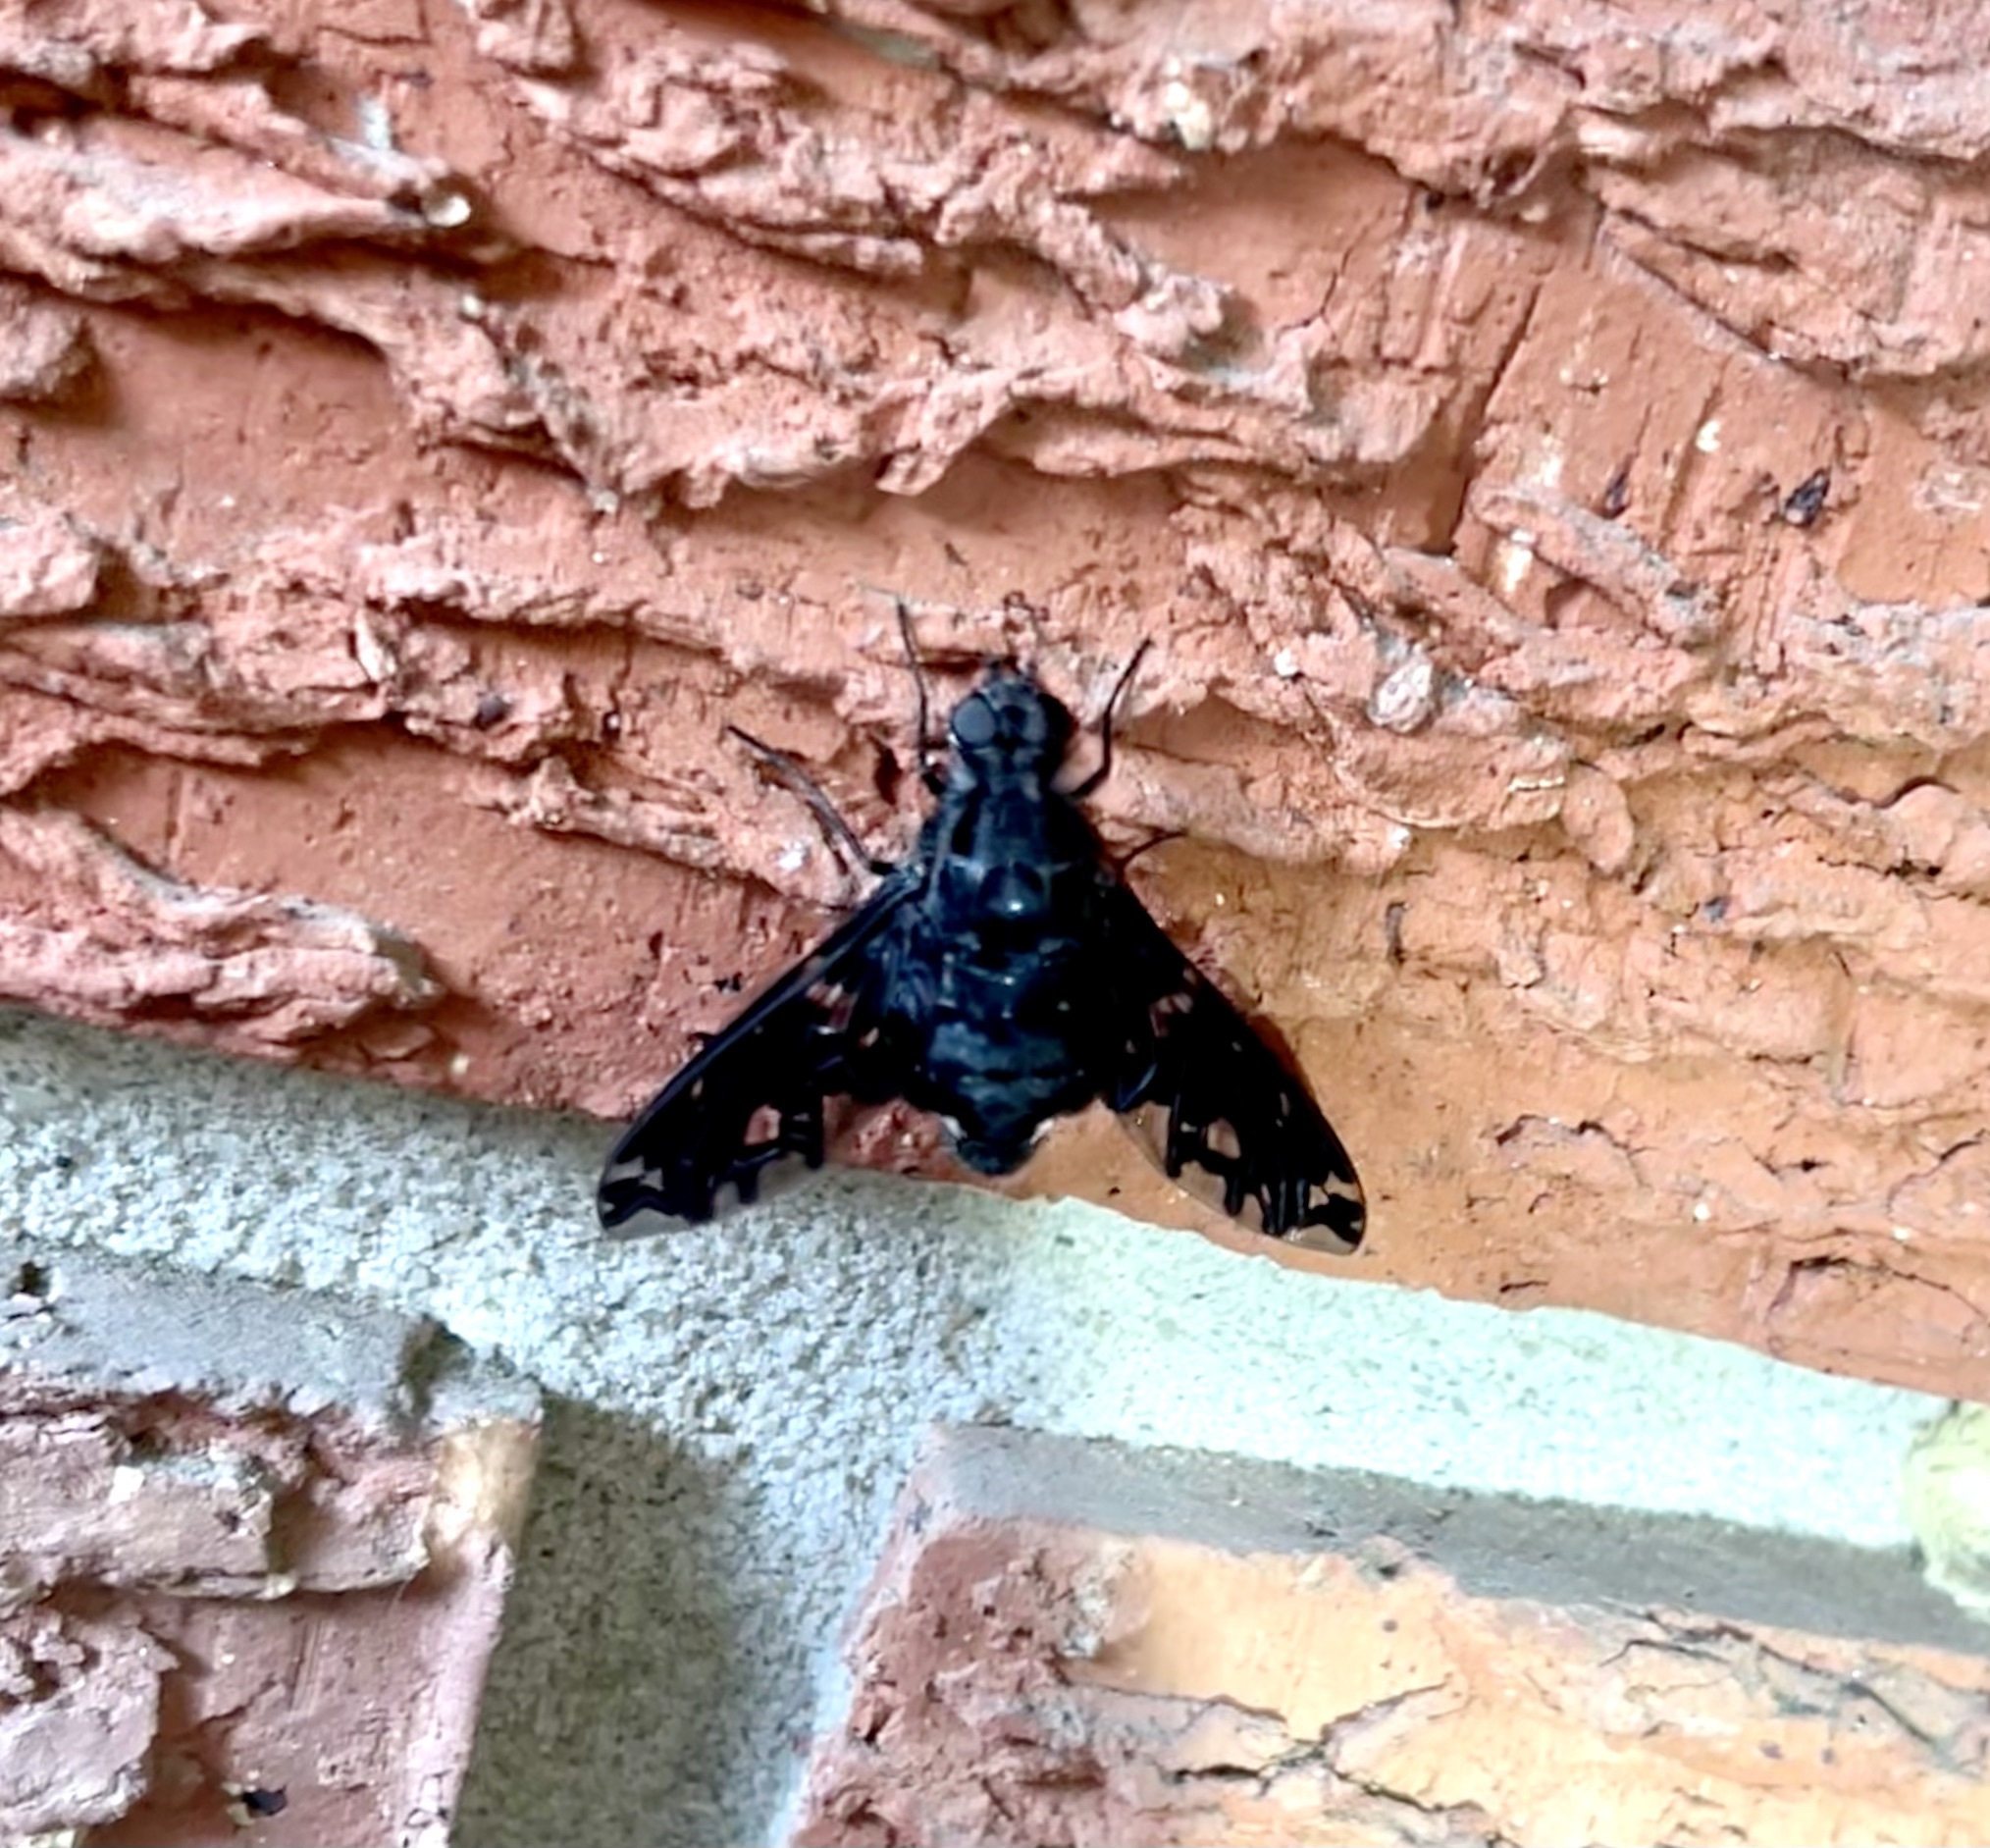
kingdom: Animalia
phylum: Arthropoda
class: Insecta
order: Diptera
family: Bombyliidae
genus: Xenox
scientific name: Xenox tigrinus
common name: Tiger bee fly
